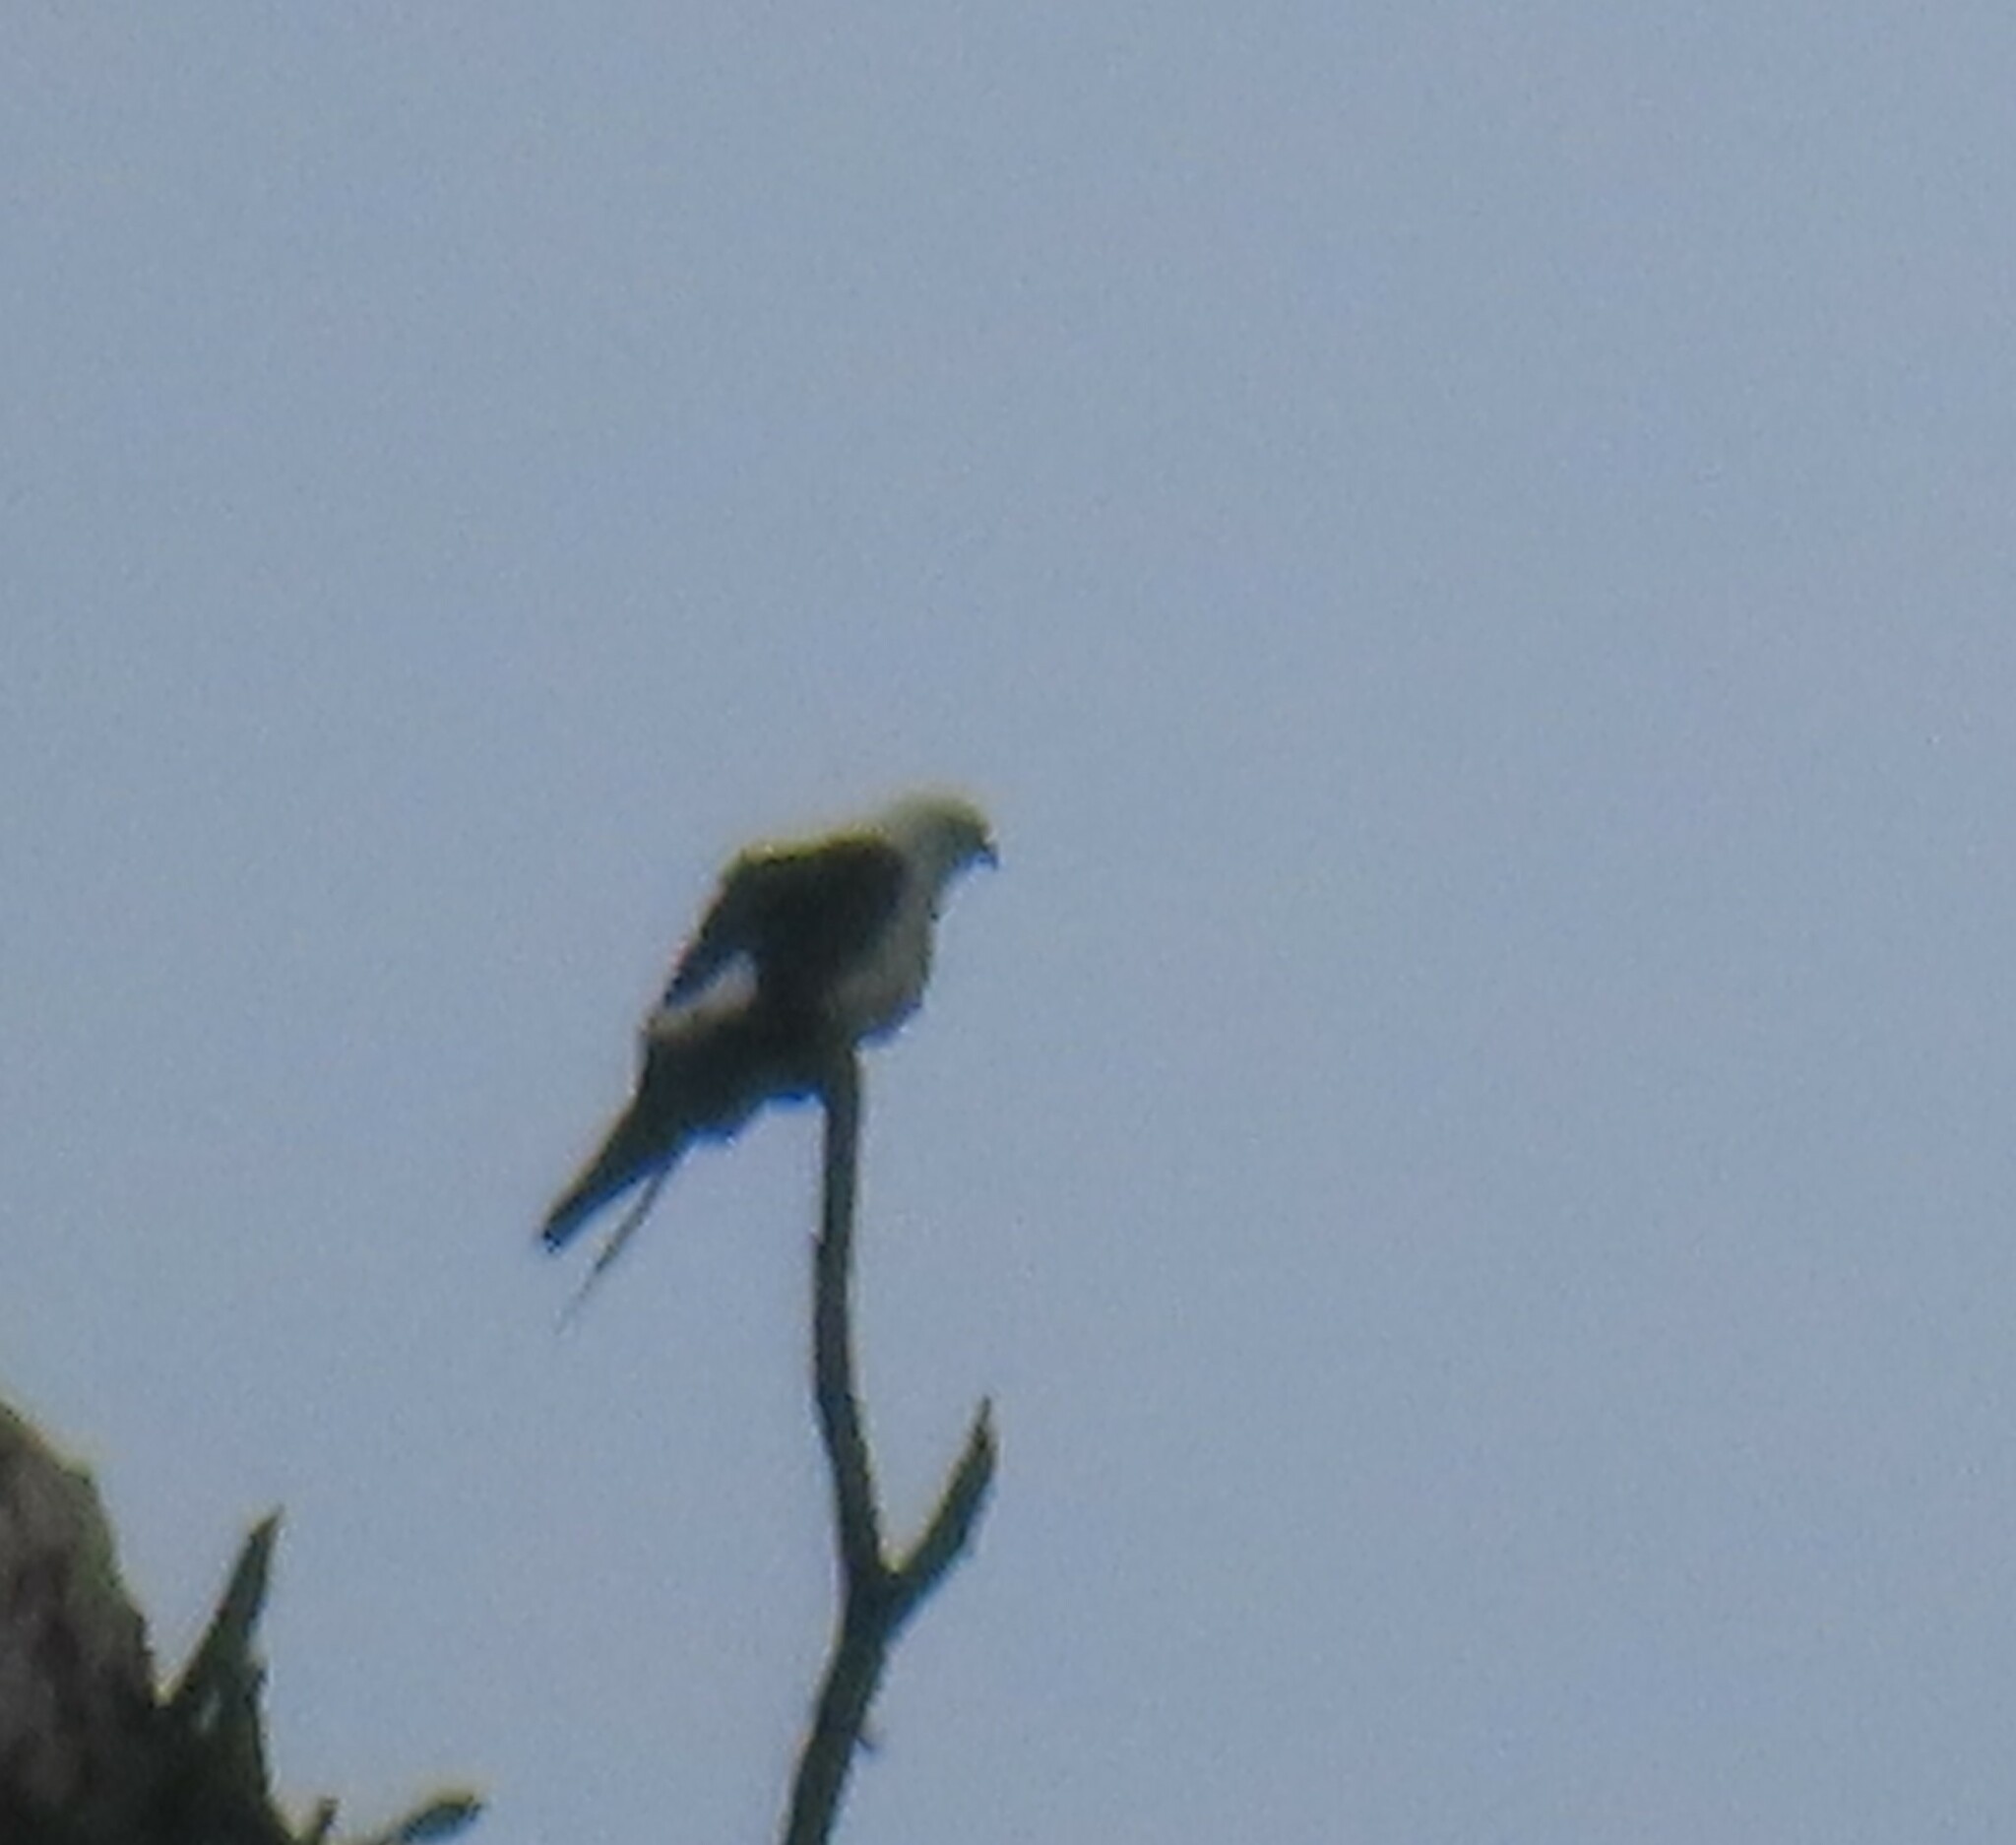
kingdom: Animalia
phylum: Chordata
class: Aves
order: Accipitriformes
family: Accipitridae
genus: Elanoides
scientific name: Elanoides forficatus
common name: Swallow-tailed kite
